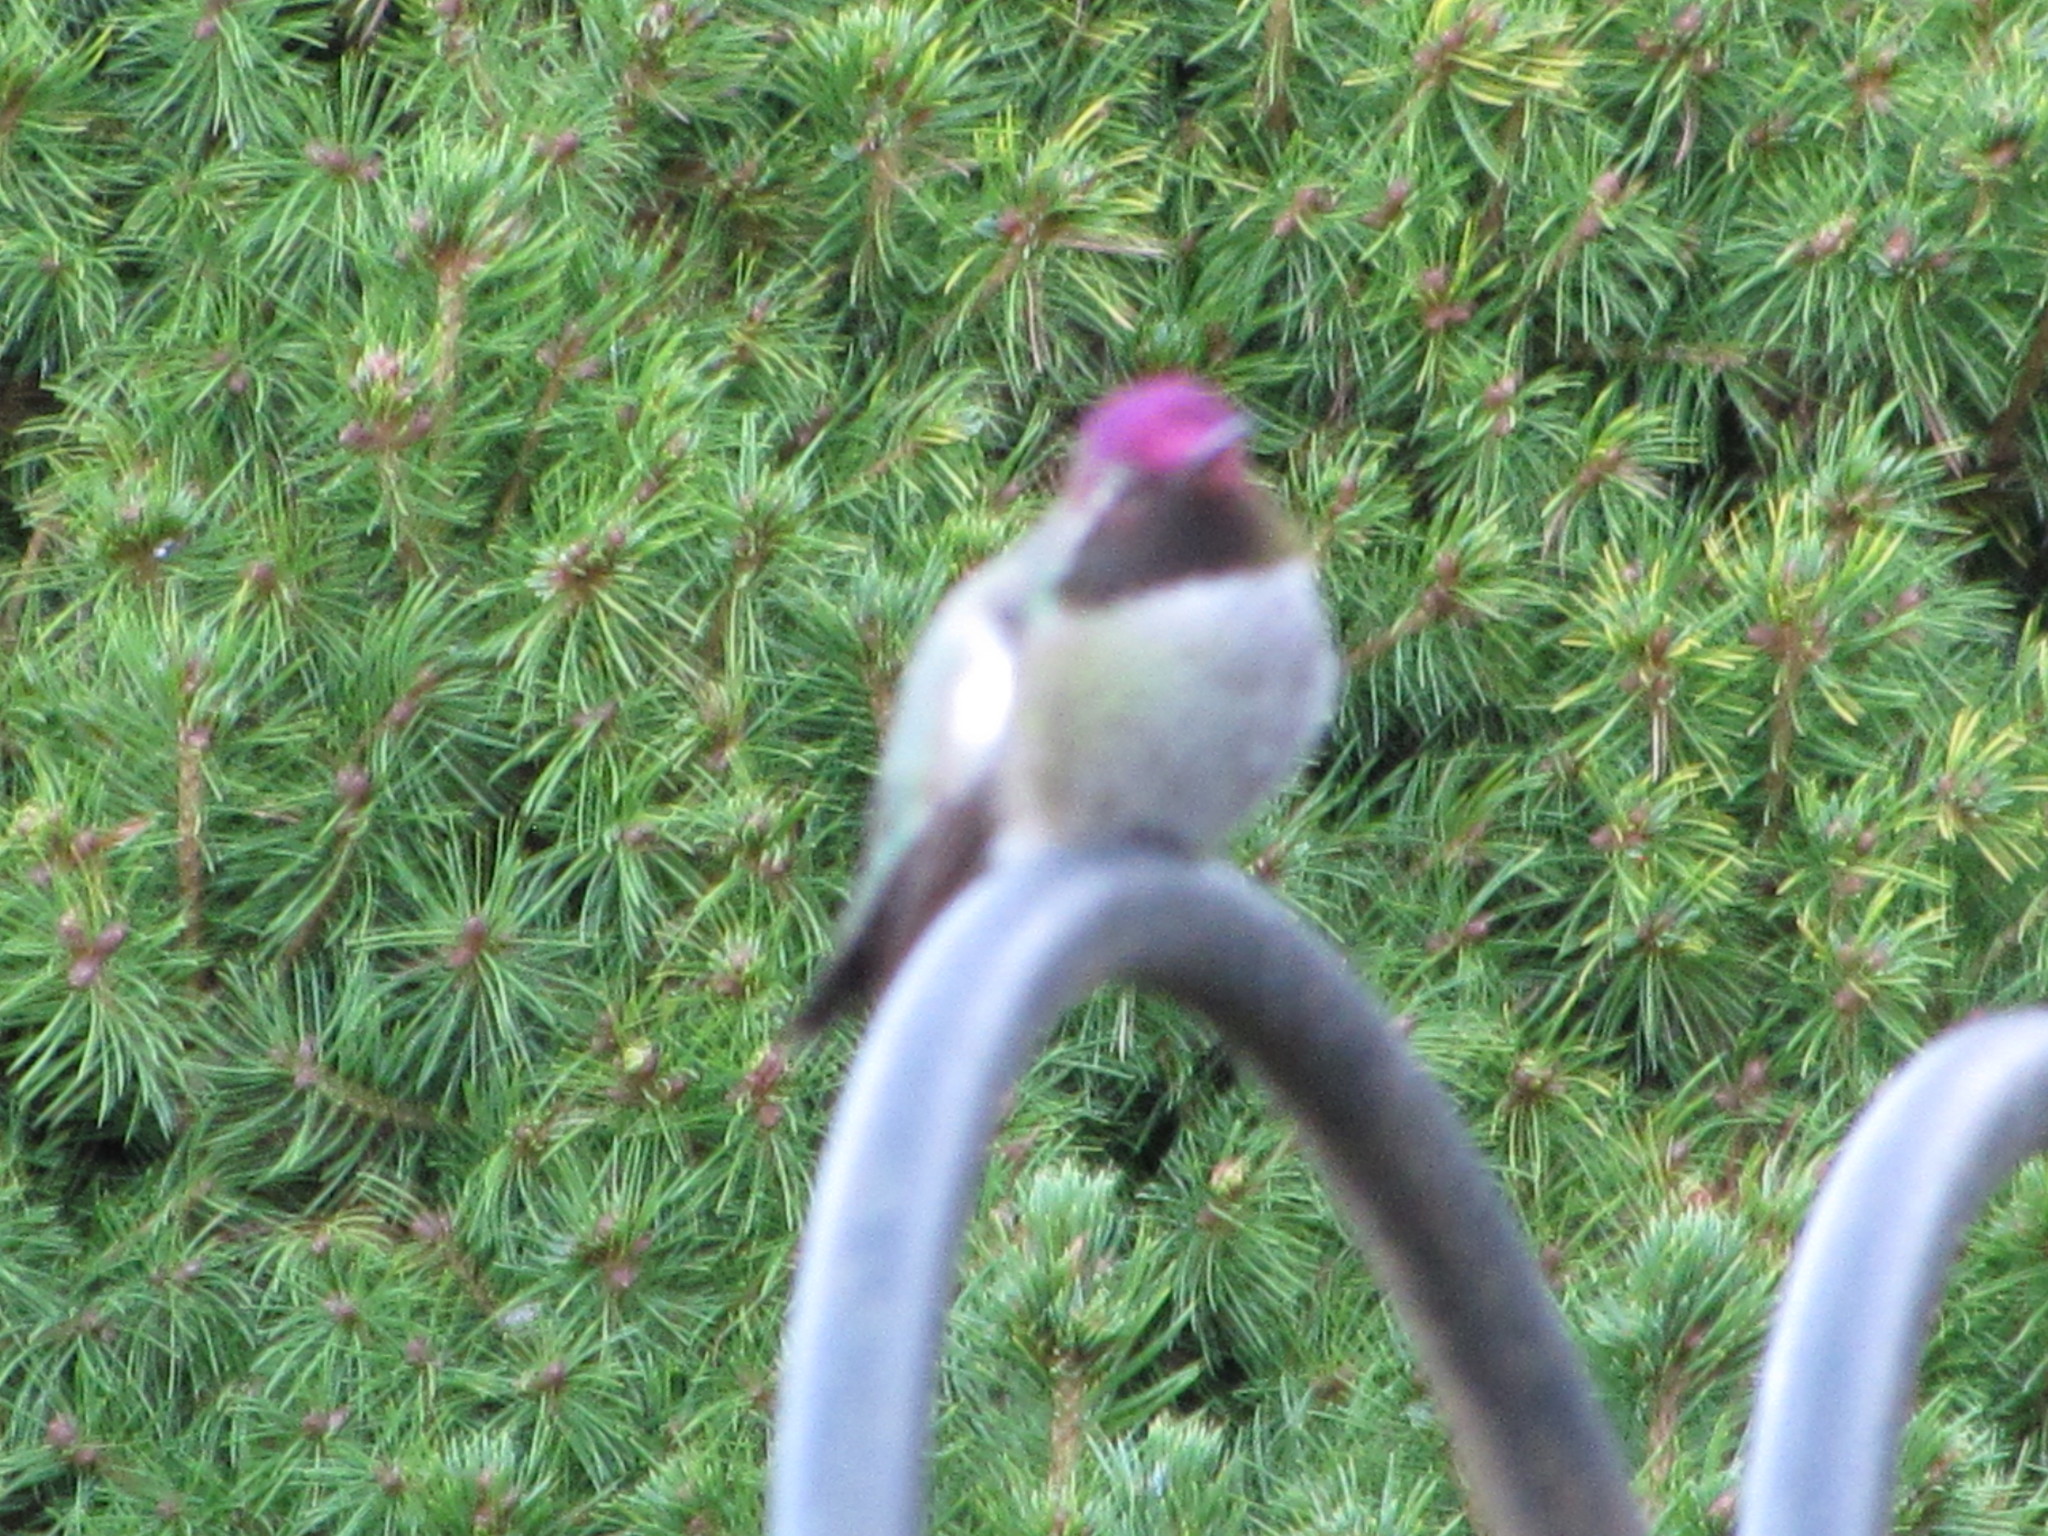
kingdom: Animalia
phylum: Chordata
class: Aves
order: Apodiformes
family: Trochilidae
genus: Calypte
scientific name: Calypte anna
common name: Anna's hummingbird
